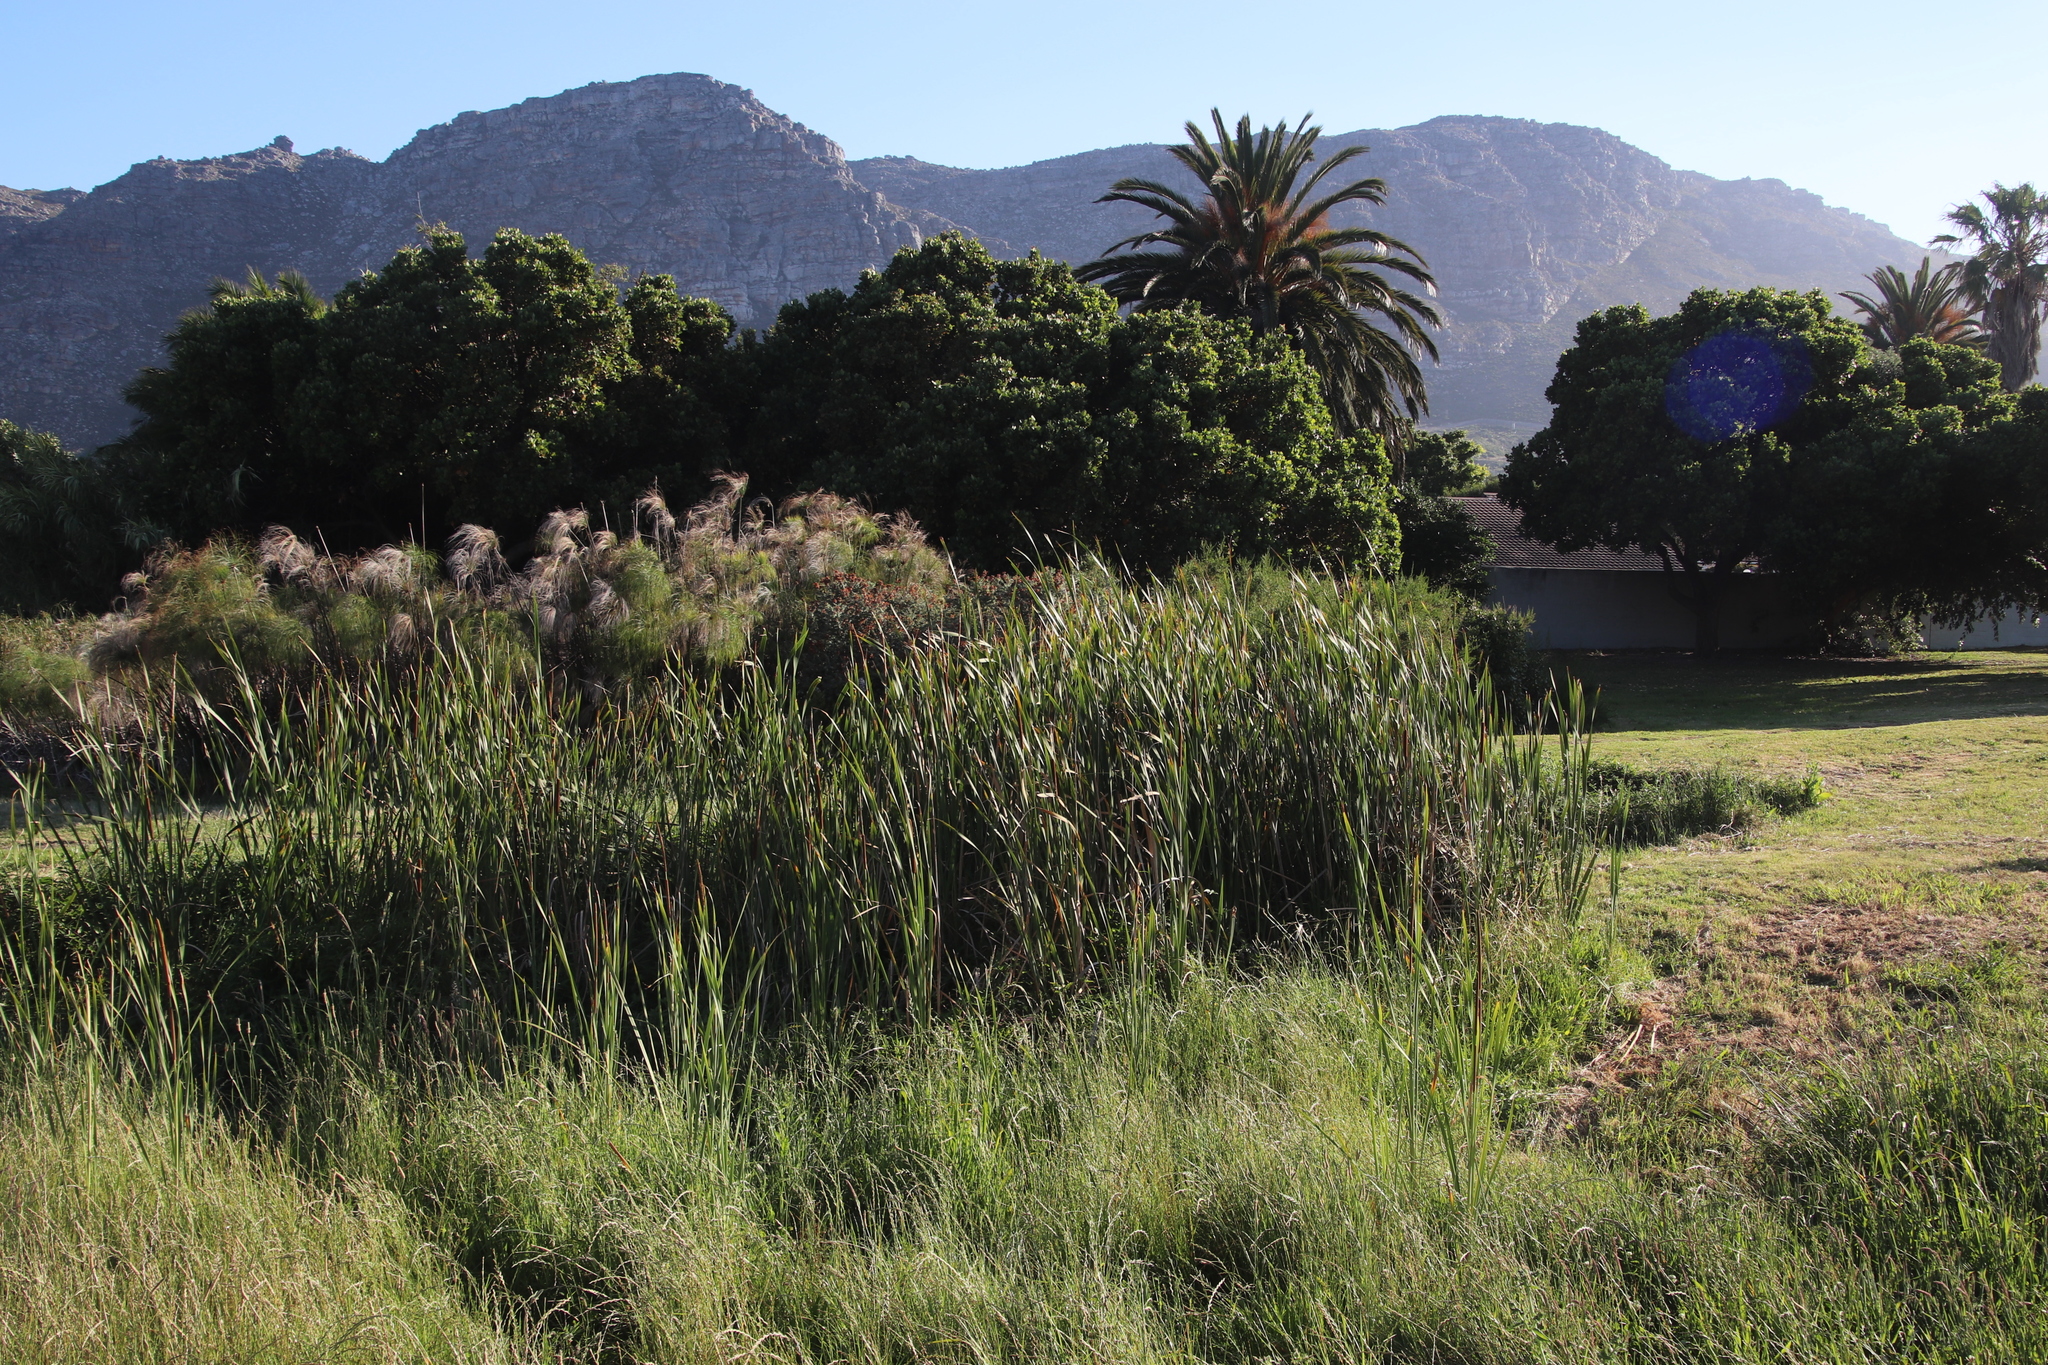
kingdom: Plantae
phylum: Tracheophyta
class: Liliopsida
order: Poales
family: Typhaceae
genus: Typha
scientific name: Typha capensis
